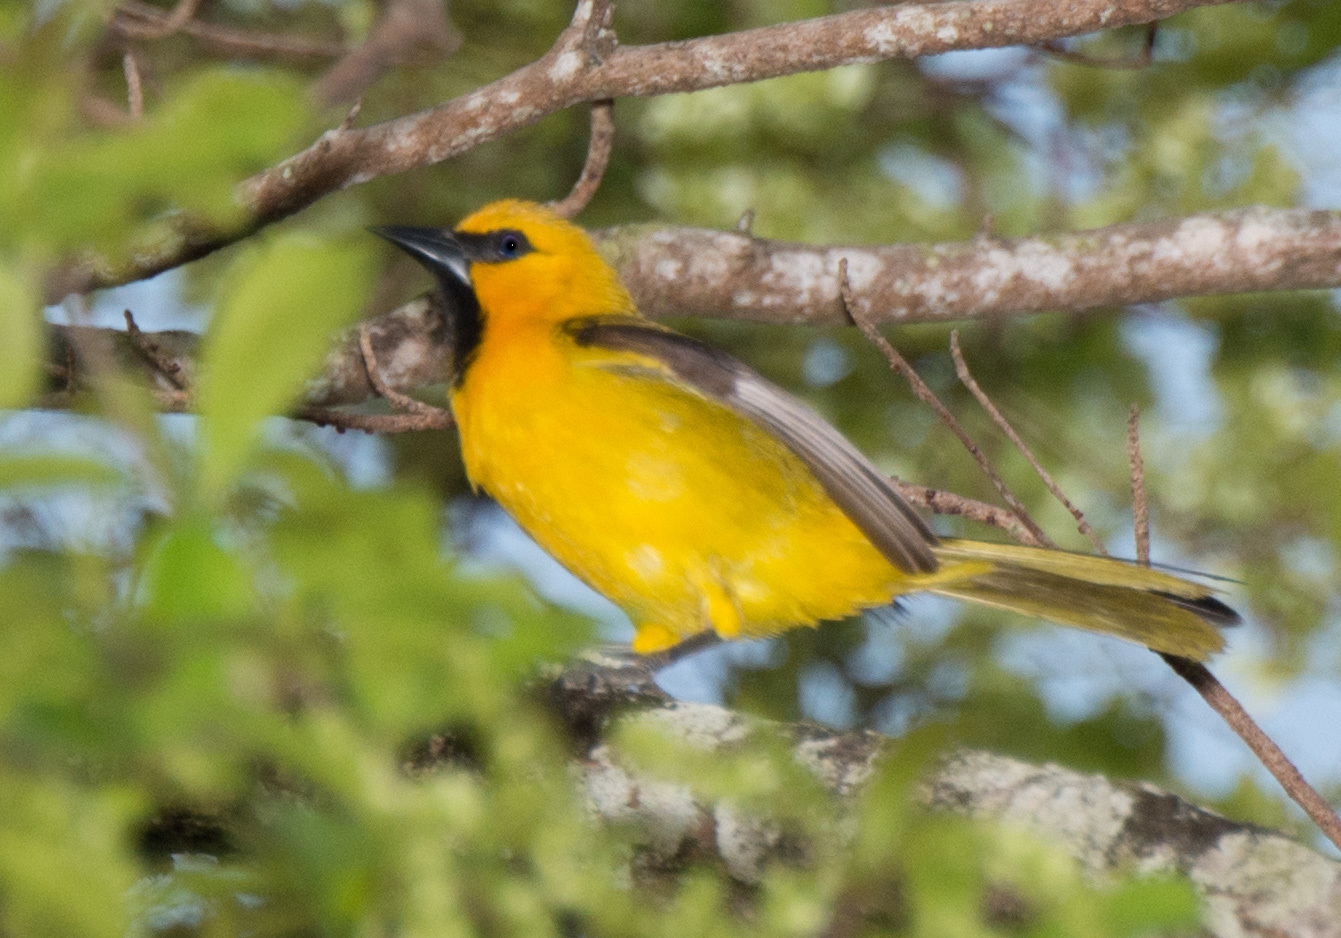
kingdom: Animalia
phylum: Chordata
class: Aves
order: Passeriformes
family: Icteridae
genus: Icterus
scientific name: Icterus nigrogularis
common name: Yellow oriole
